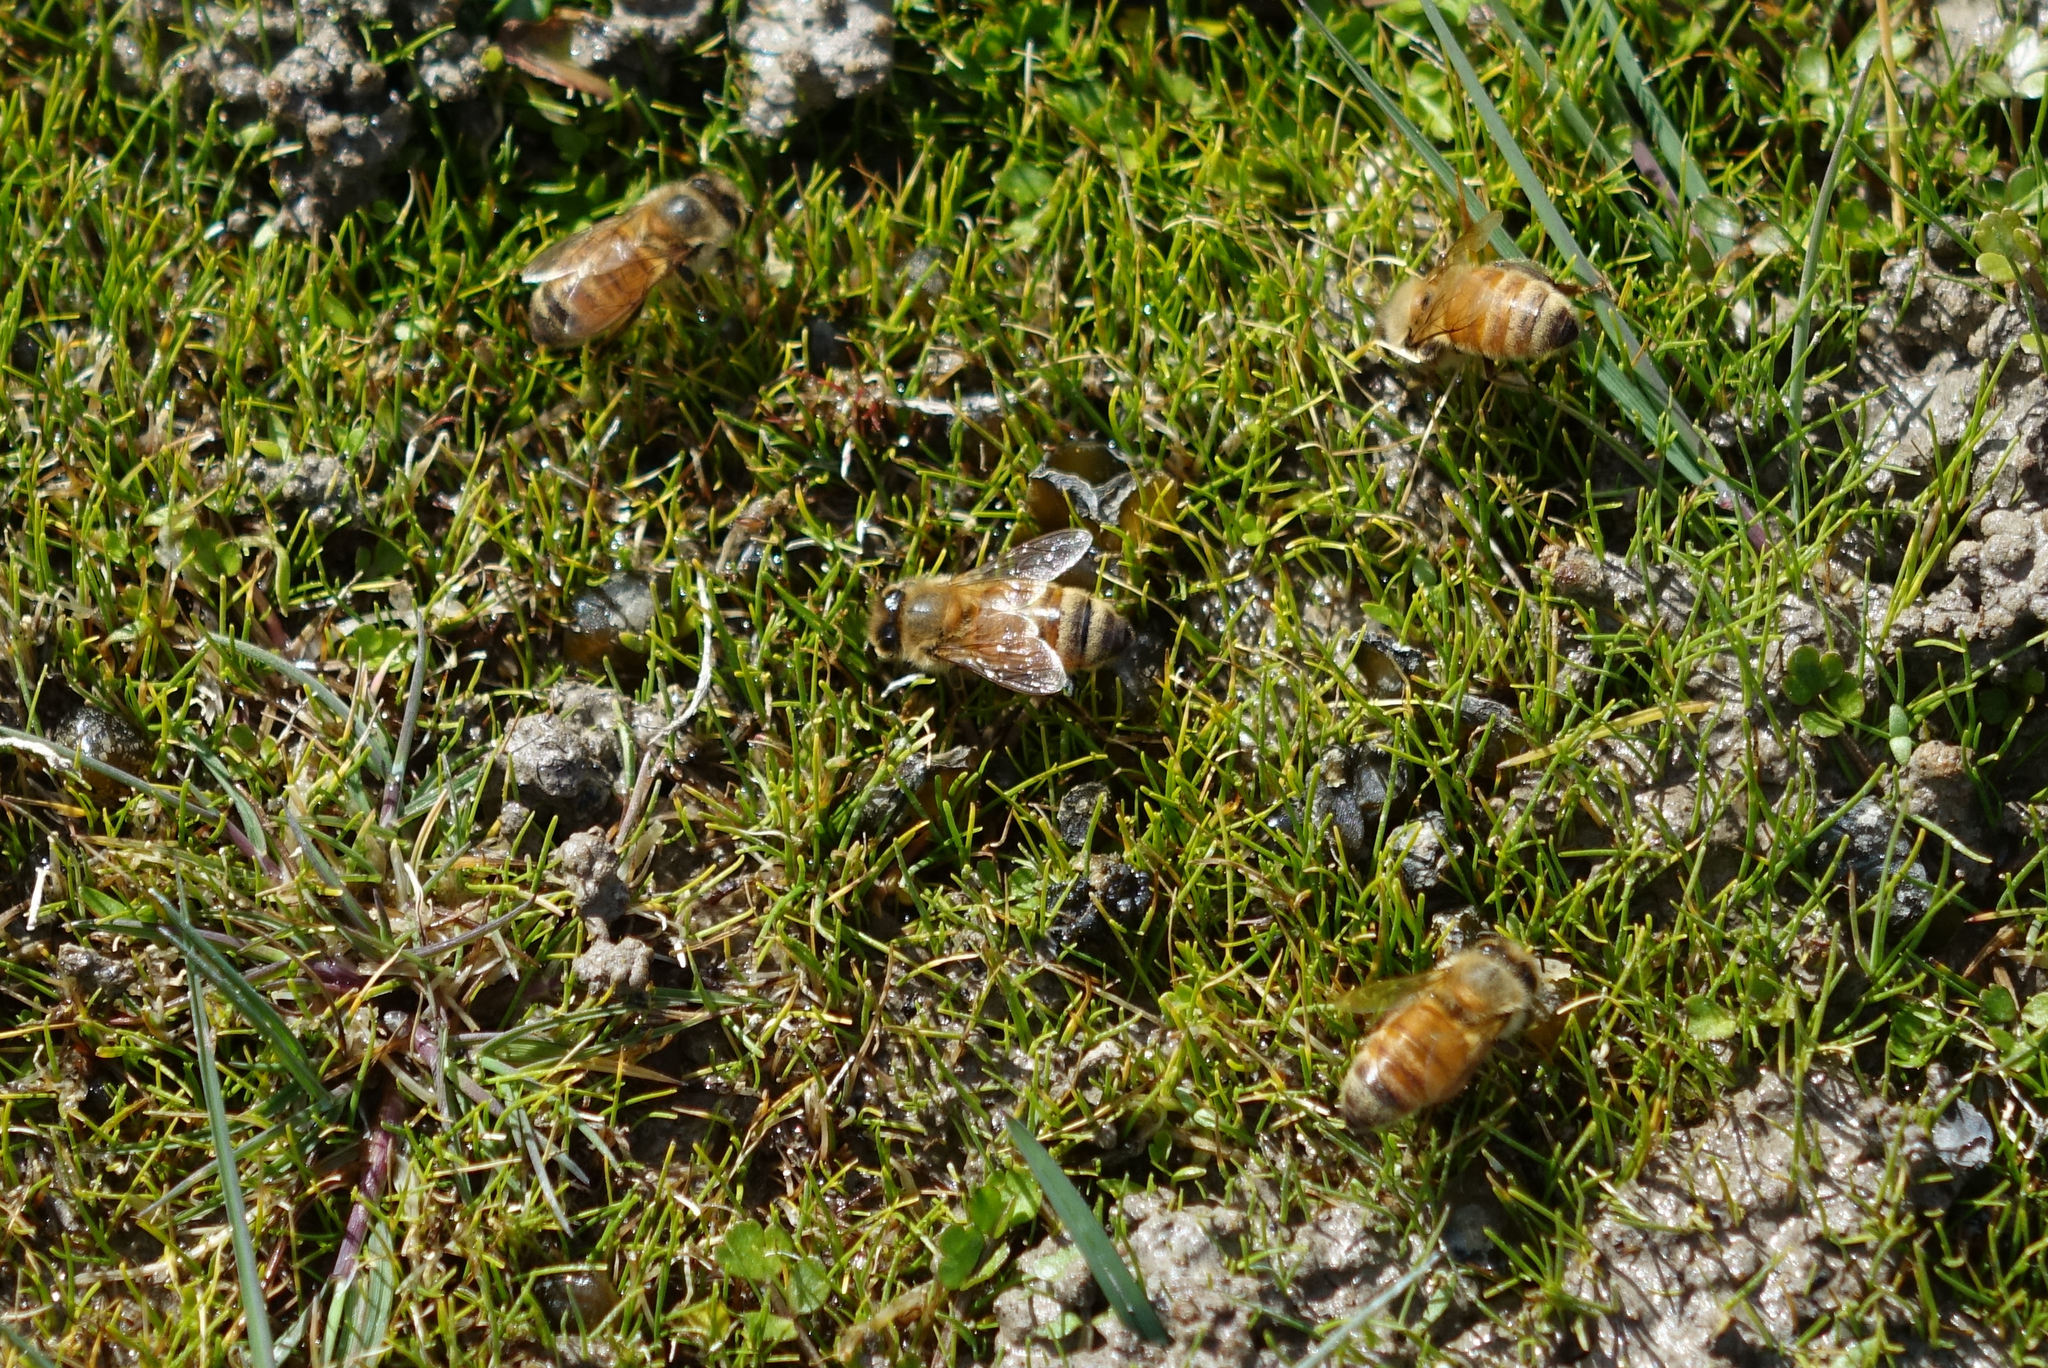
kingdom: Animalia
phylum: Arthropoda
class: Insecta
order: Hymenoptera
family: Apidae
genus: Apis
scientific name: Apis mellifera
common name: Honey bee
